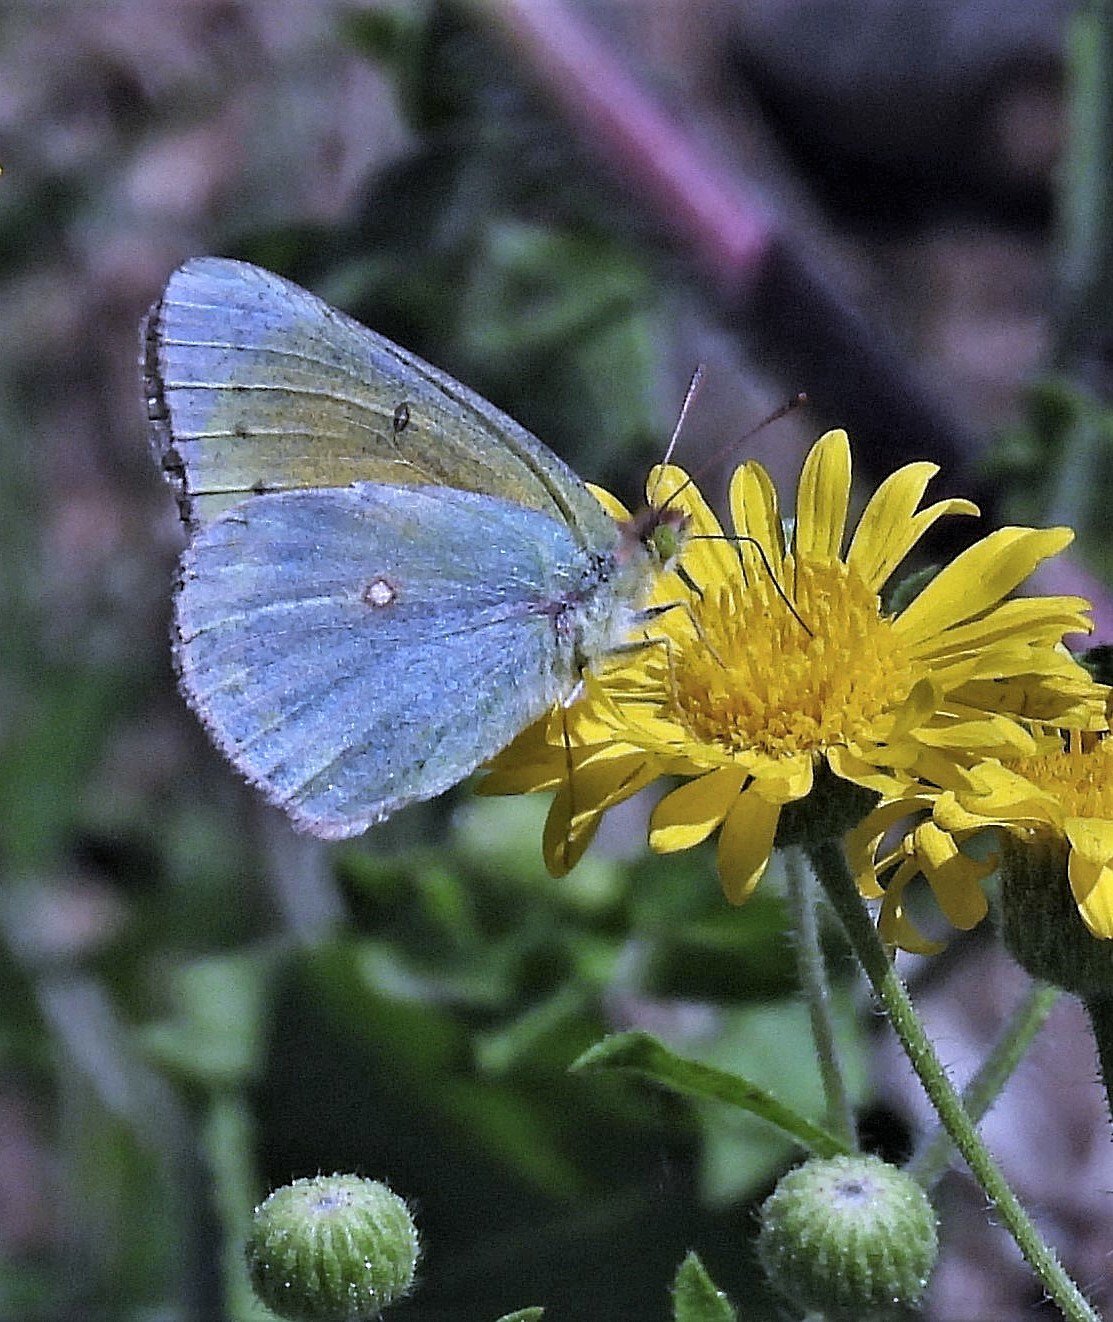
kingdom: Animalia
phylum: Arthropoda
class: Insecta
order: Lepidoptera
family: Pieridae
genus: Colias
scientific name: Colias lesbia
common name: Lesbia clouded yellow
